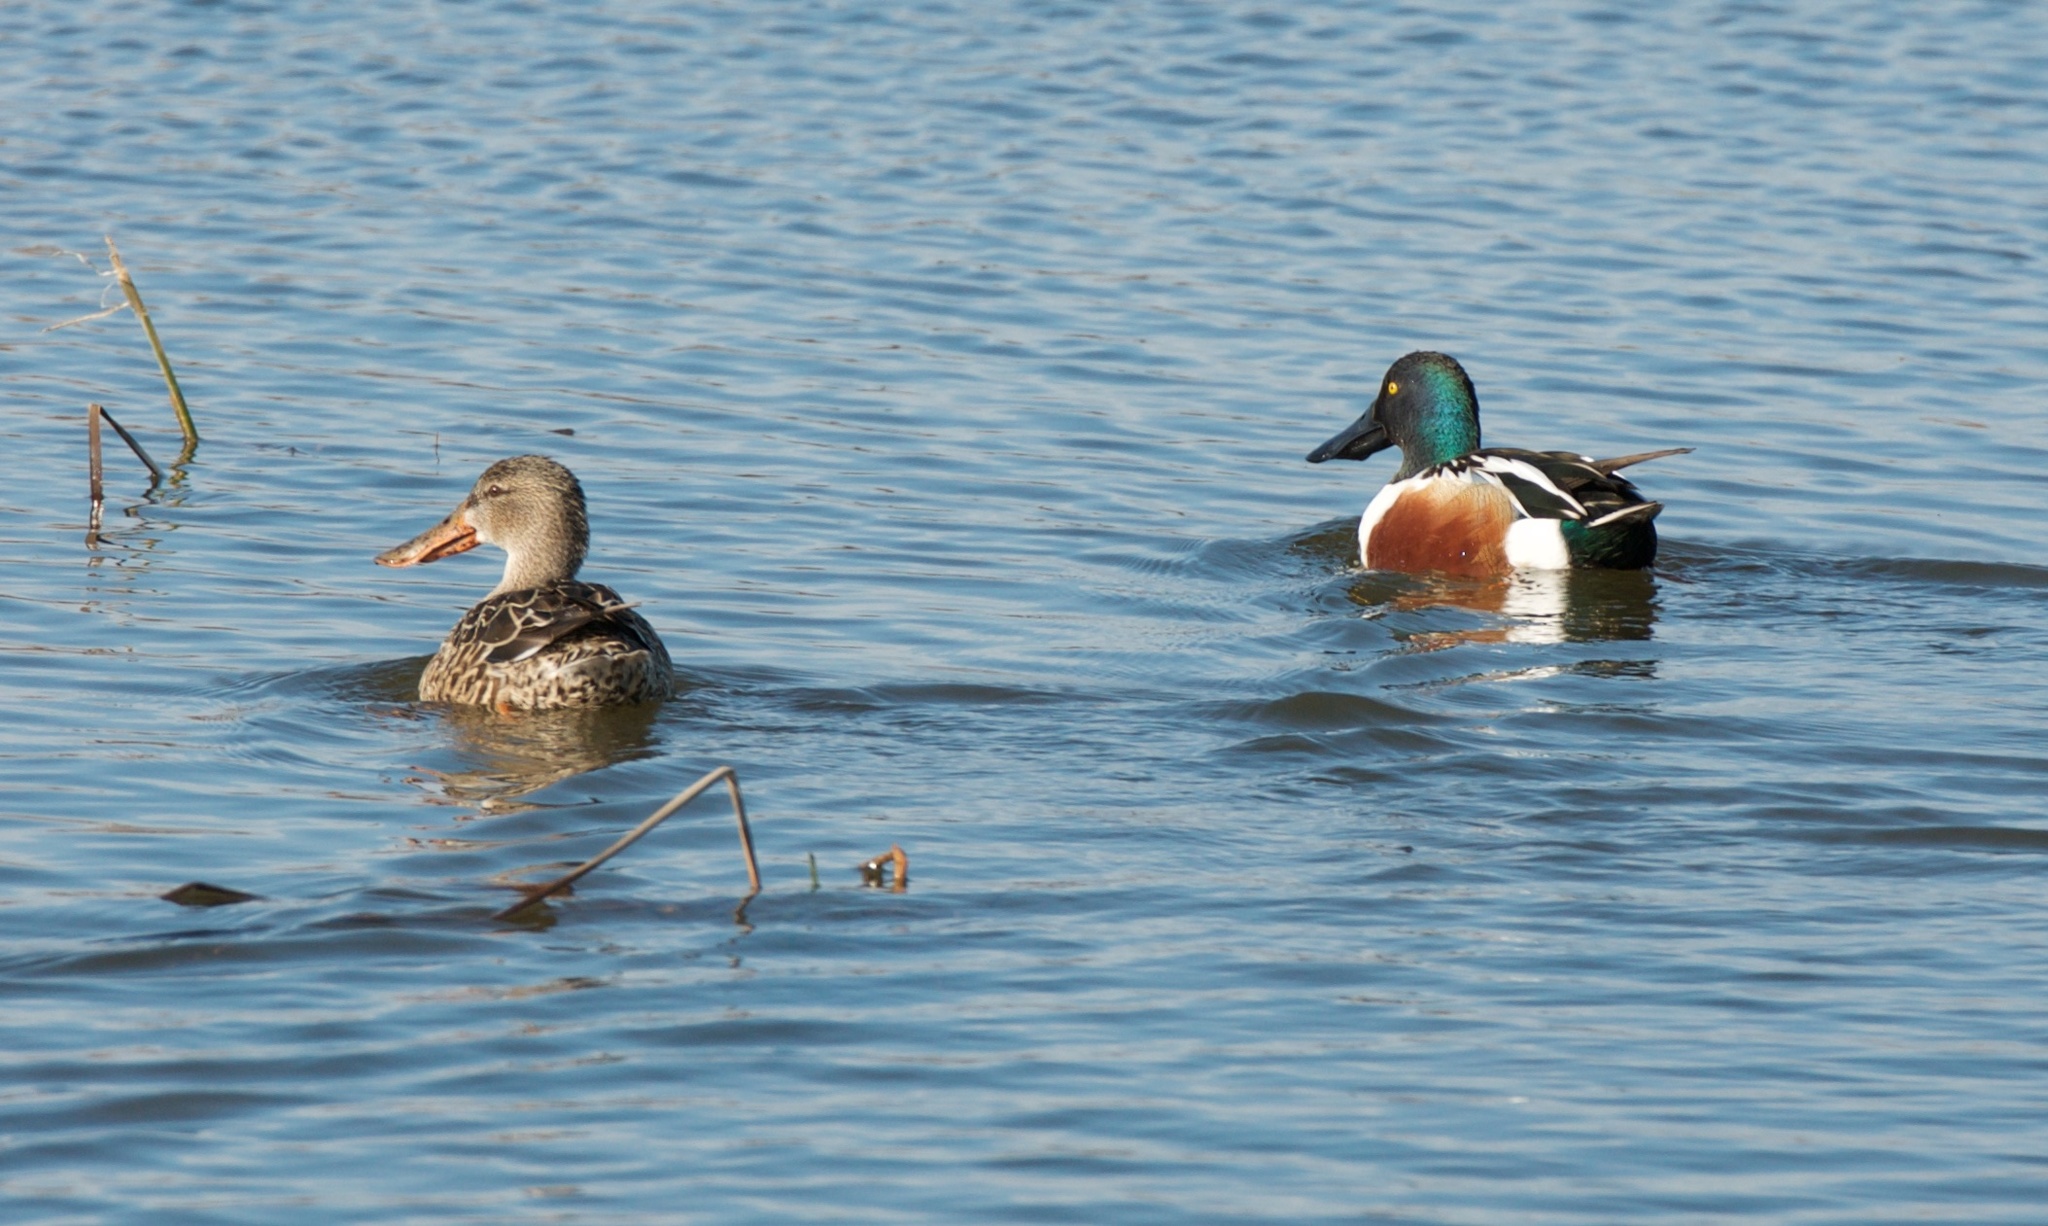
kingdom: Animalia
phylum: Chordata
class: Aves
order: Anseriformes
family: Anatidae
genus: Spatula
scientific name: Spatula clypeata
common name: Northern shoveler
